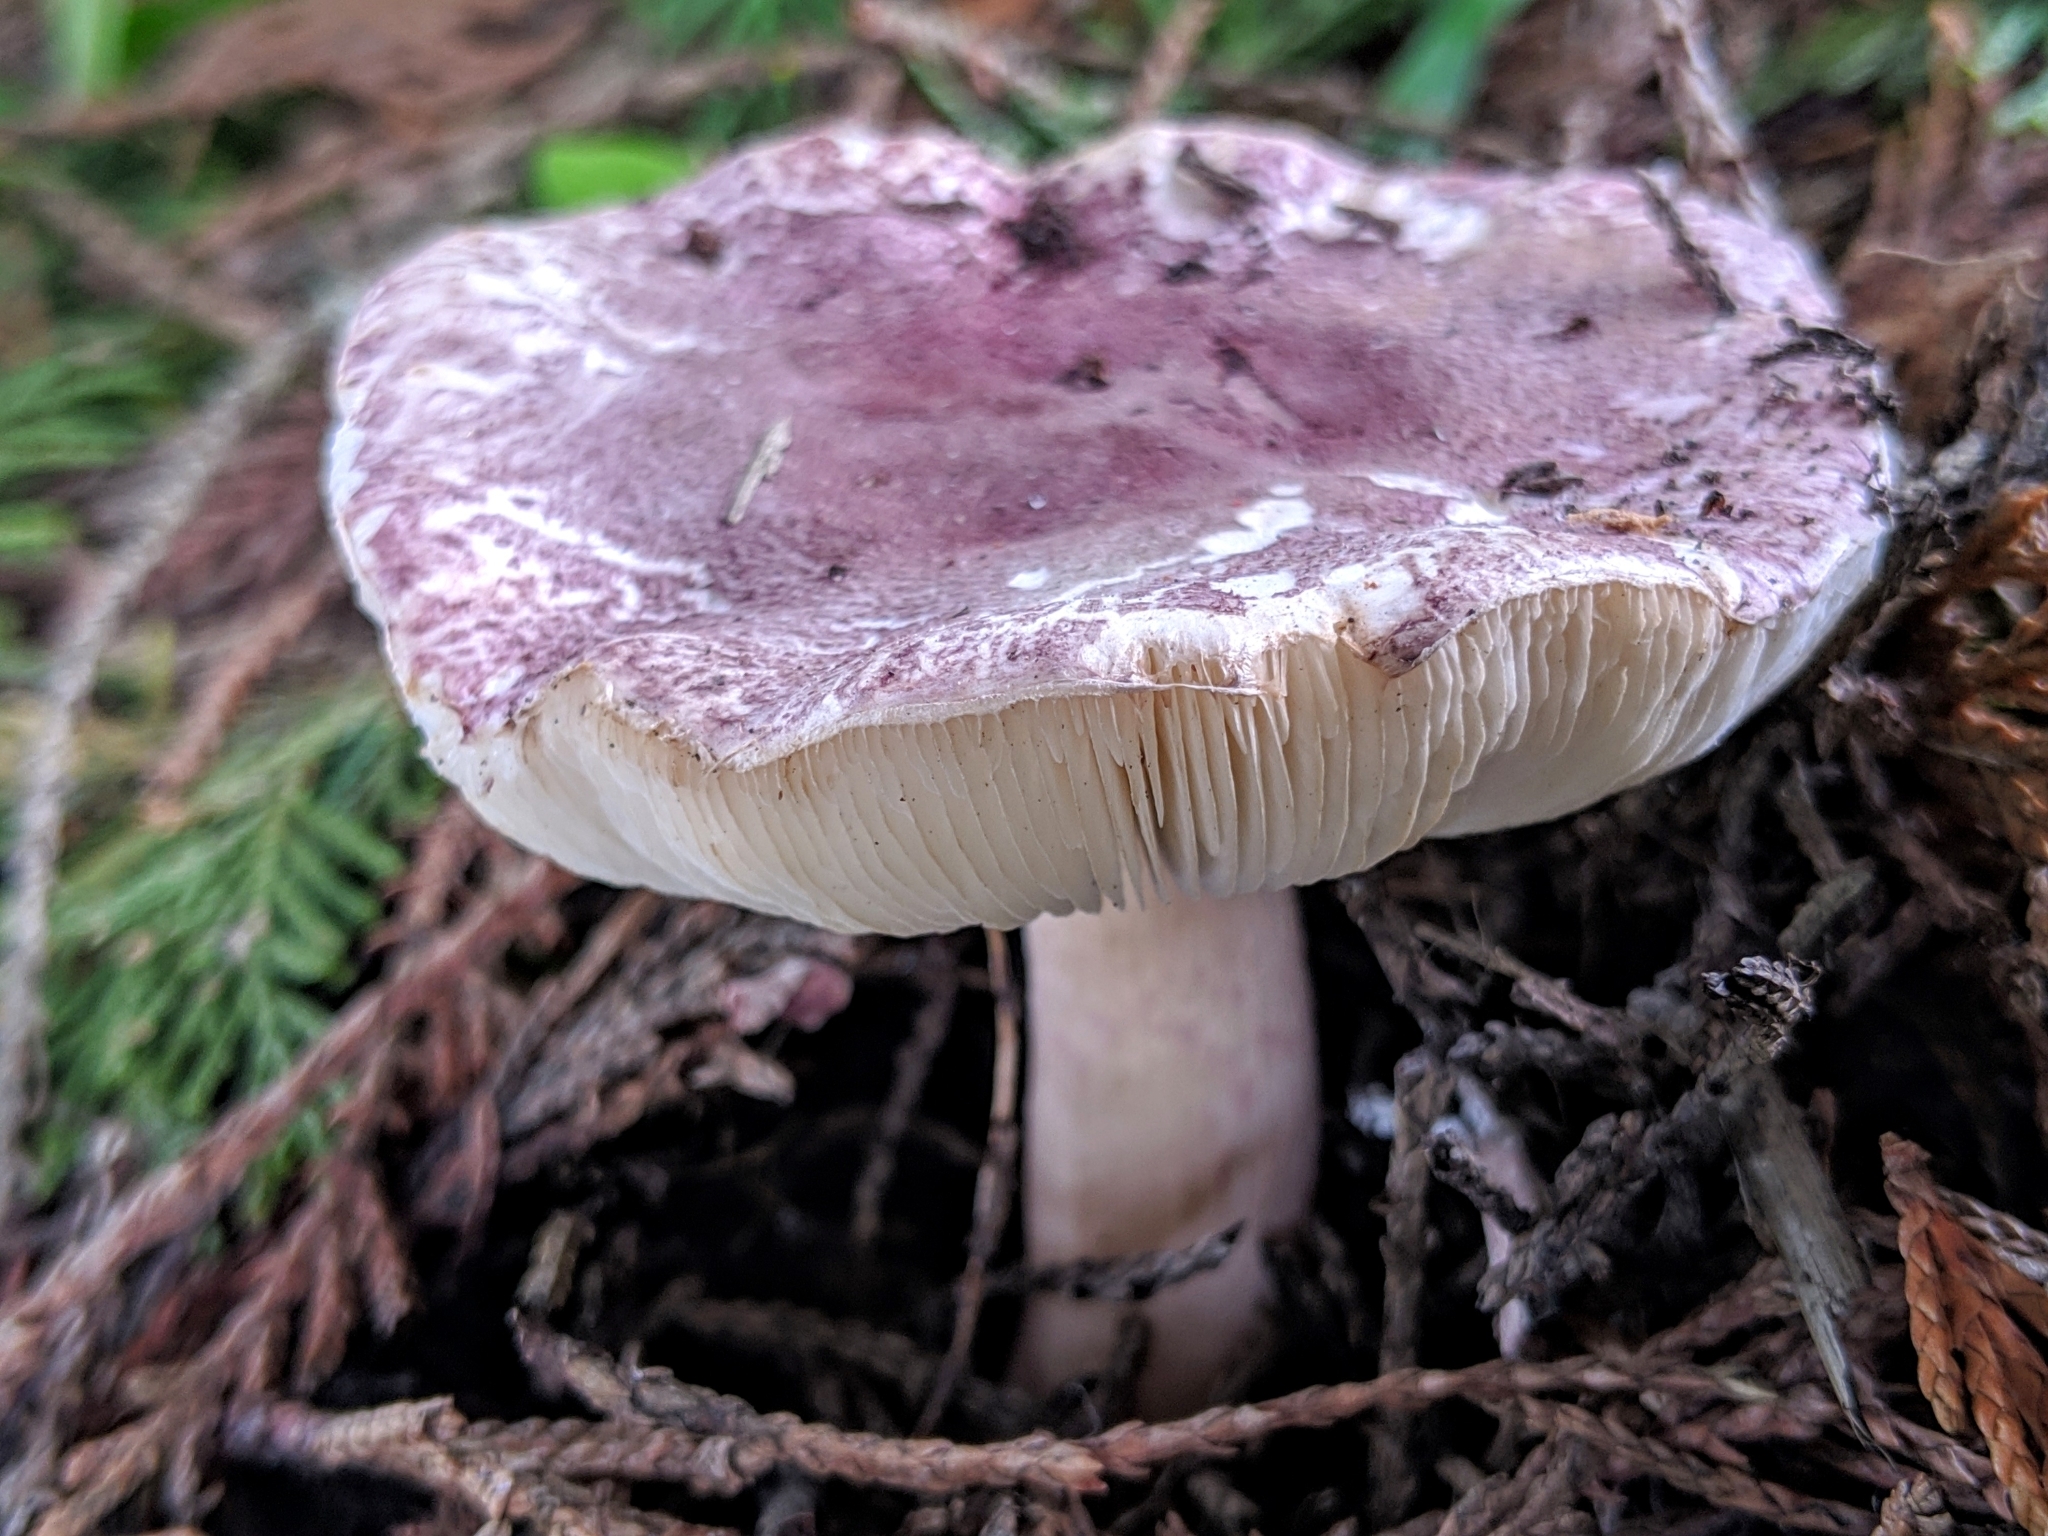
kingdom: Fungi
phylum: Basidiomycota
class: Agaricomycetes
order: Agaricales
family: Agaricaceae
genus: Lepiota
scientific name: Lepiota decorata
